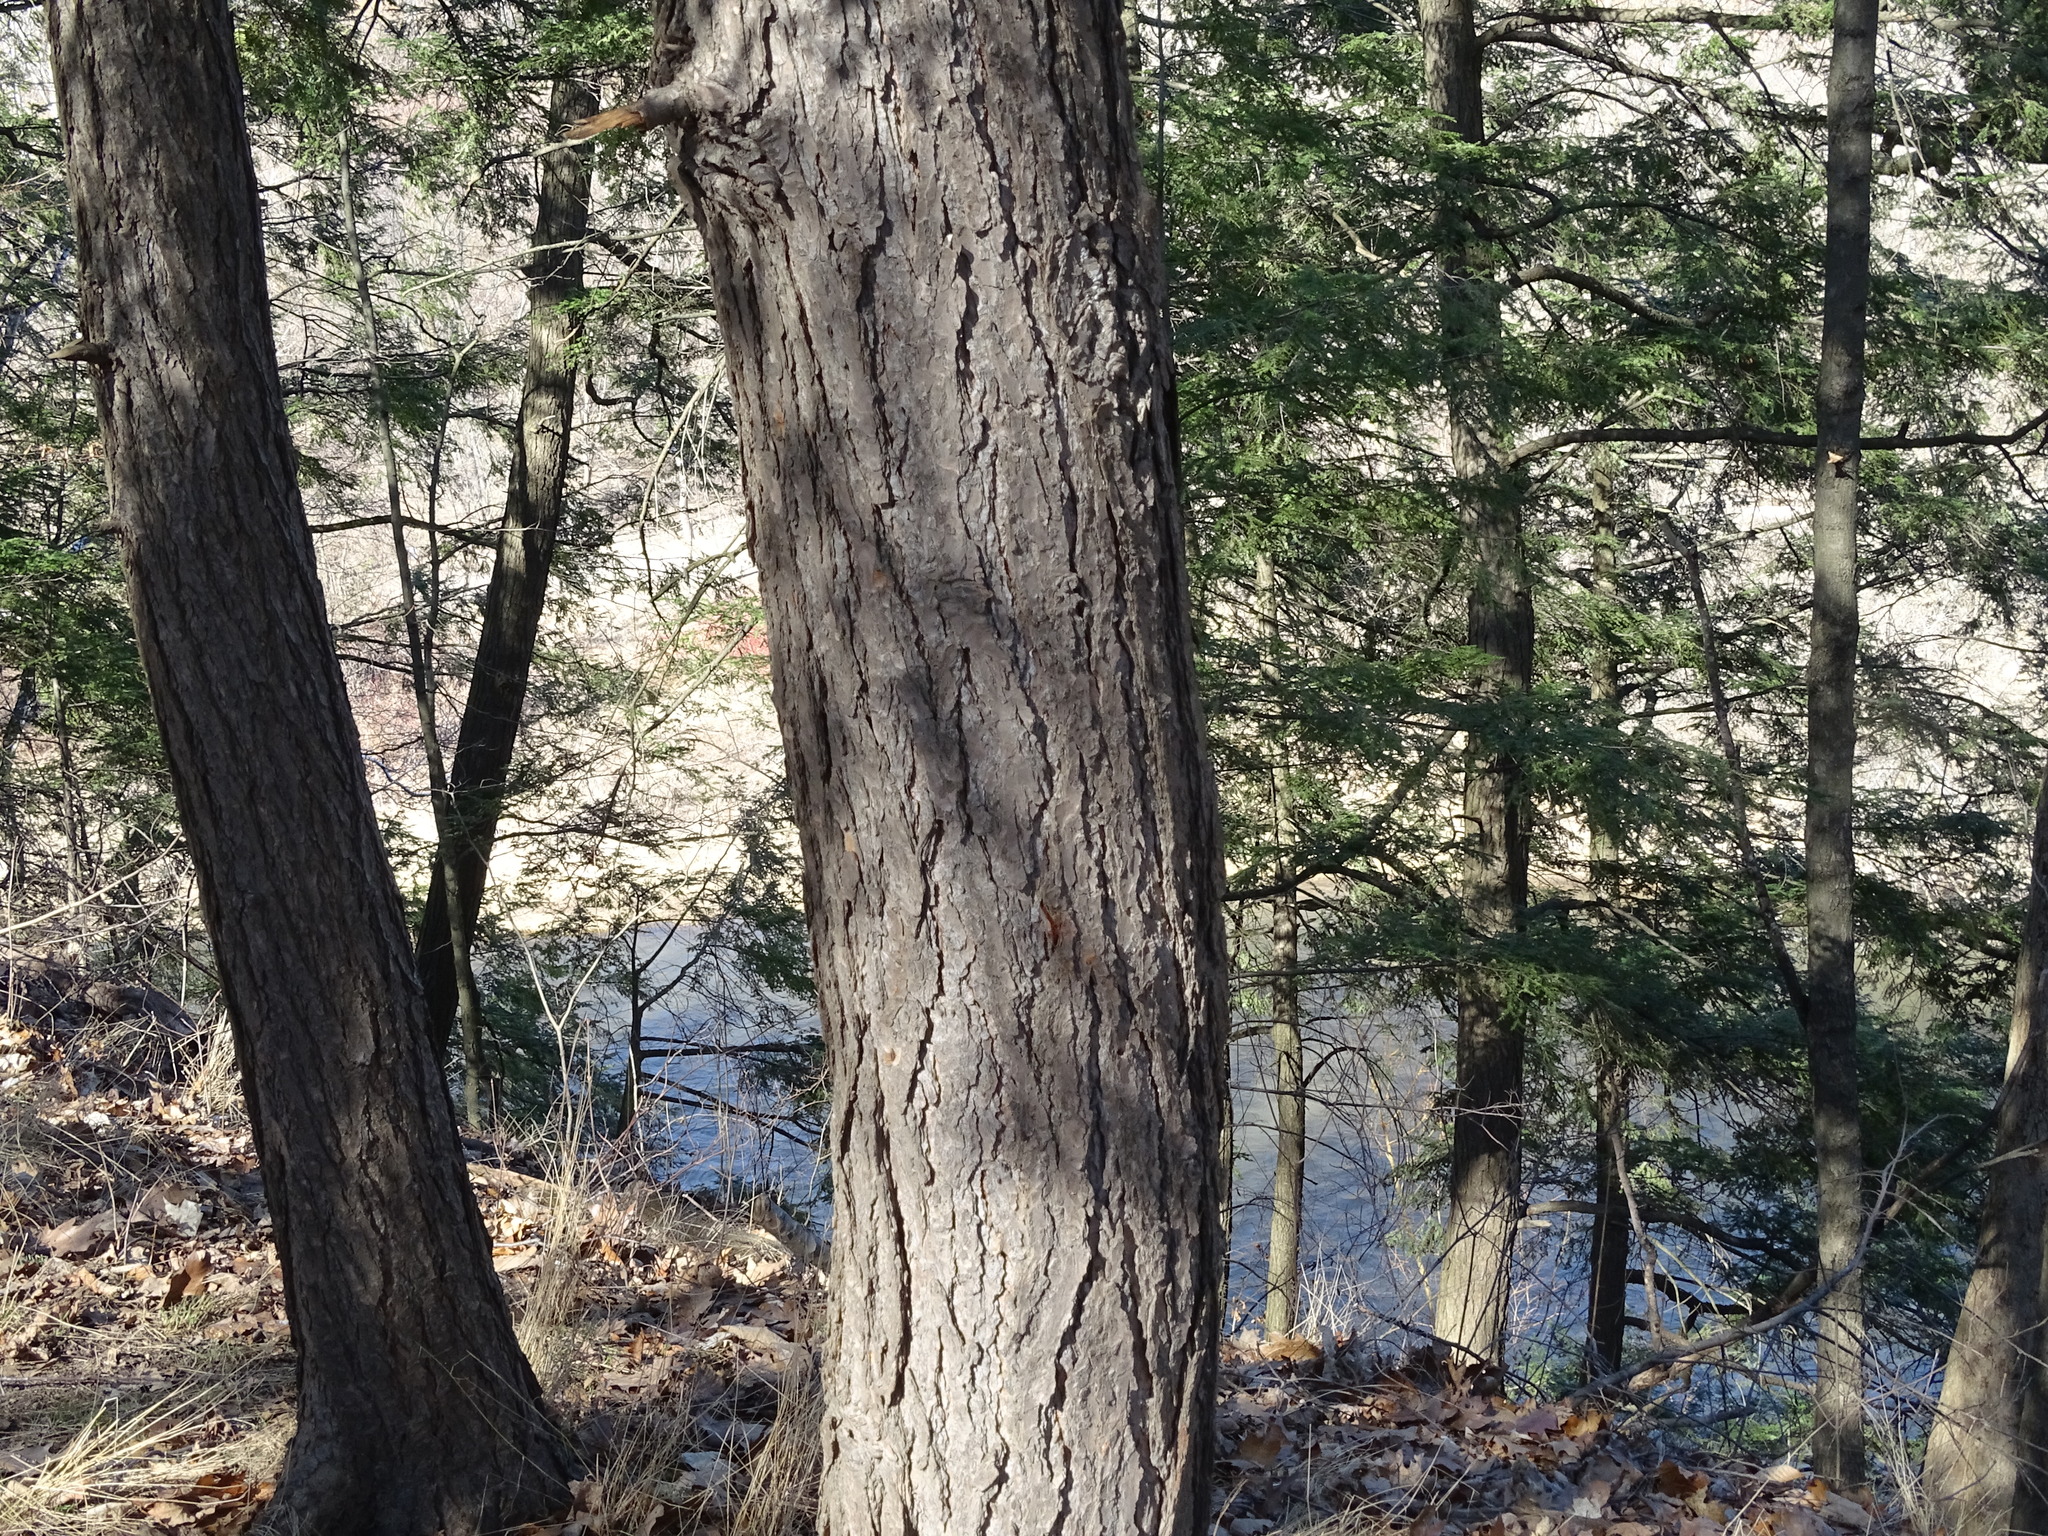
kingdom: Plantae
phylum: Tracheophyta
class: Pinopsida
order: Pinales
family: Pinaceae
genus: Tsuga
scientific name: Tsuga canadensis
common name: Eastern hemlock
